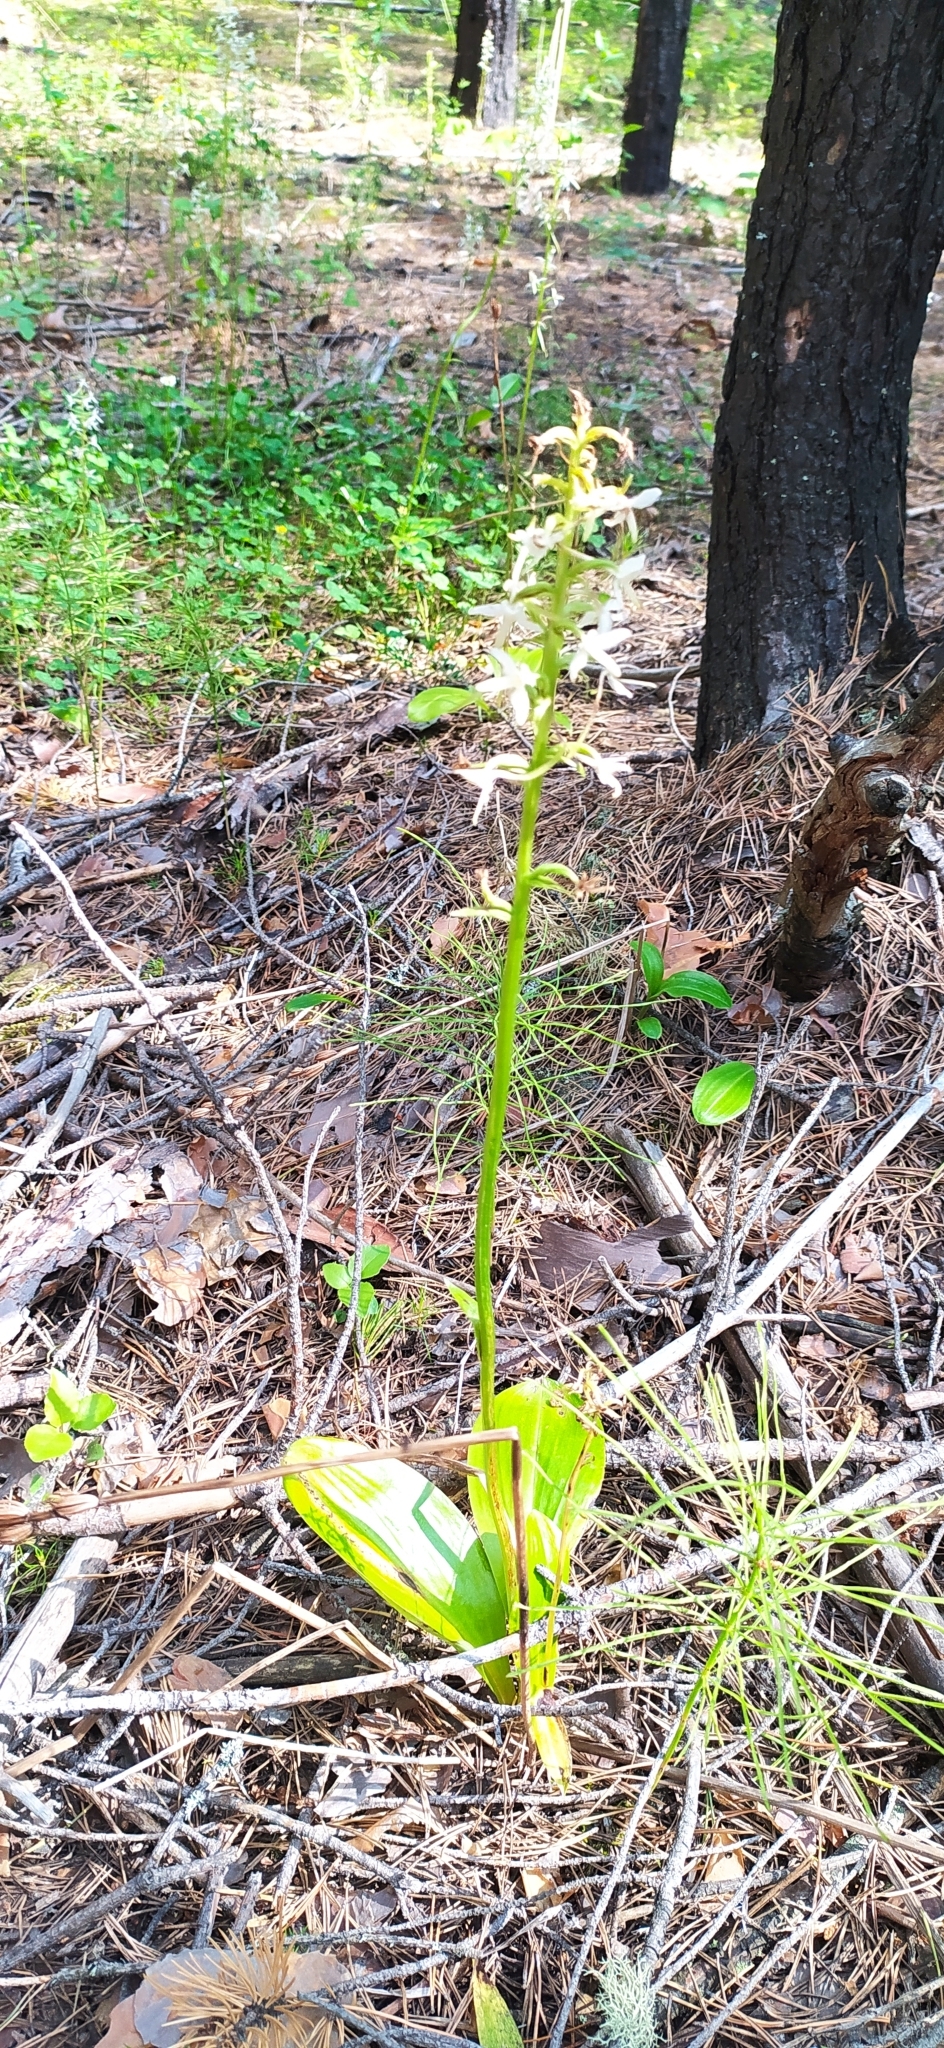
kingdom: Plantae
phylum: Tracheophyta
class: Liliopsida
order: Asparagales
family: Orchidaceae
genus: Platanthera
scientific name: Platanthera bifolia
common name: Lesser butterfly-orchid
